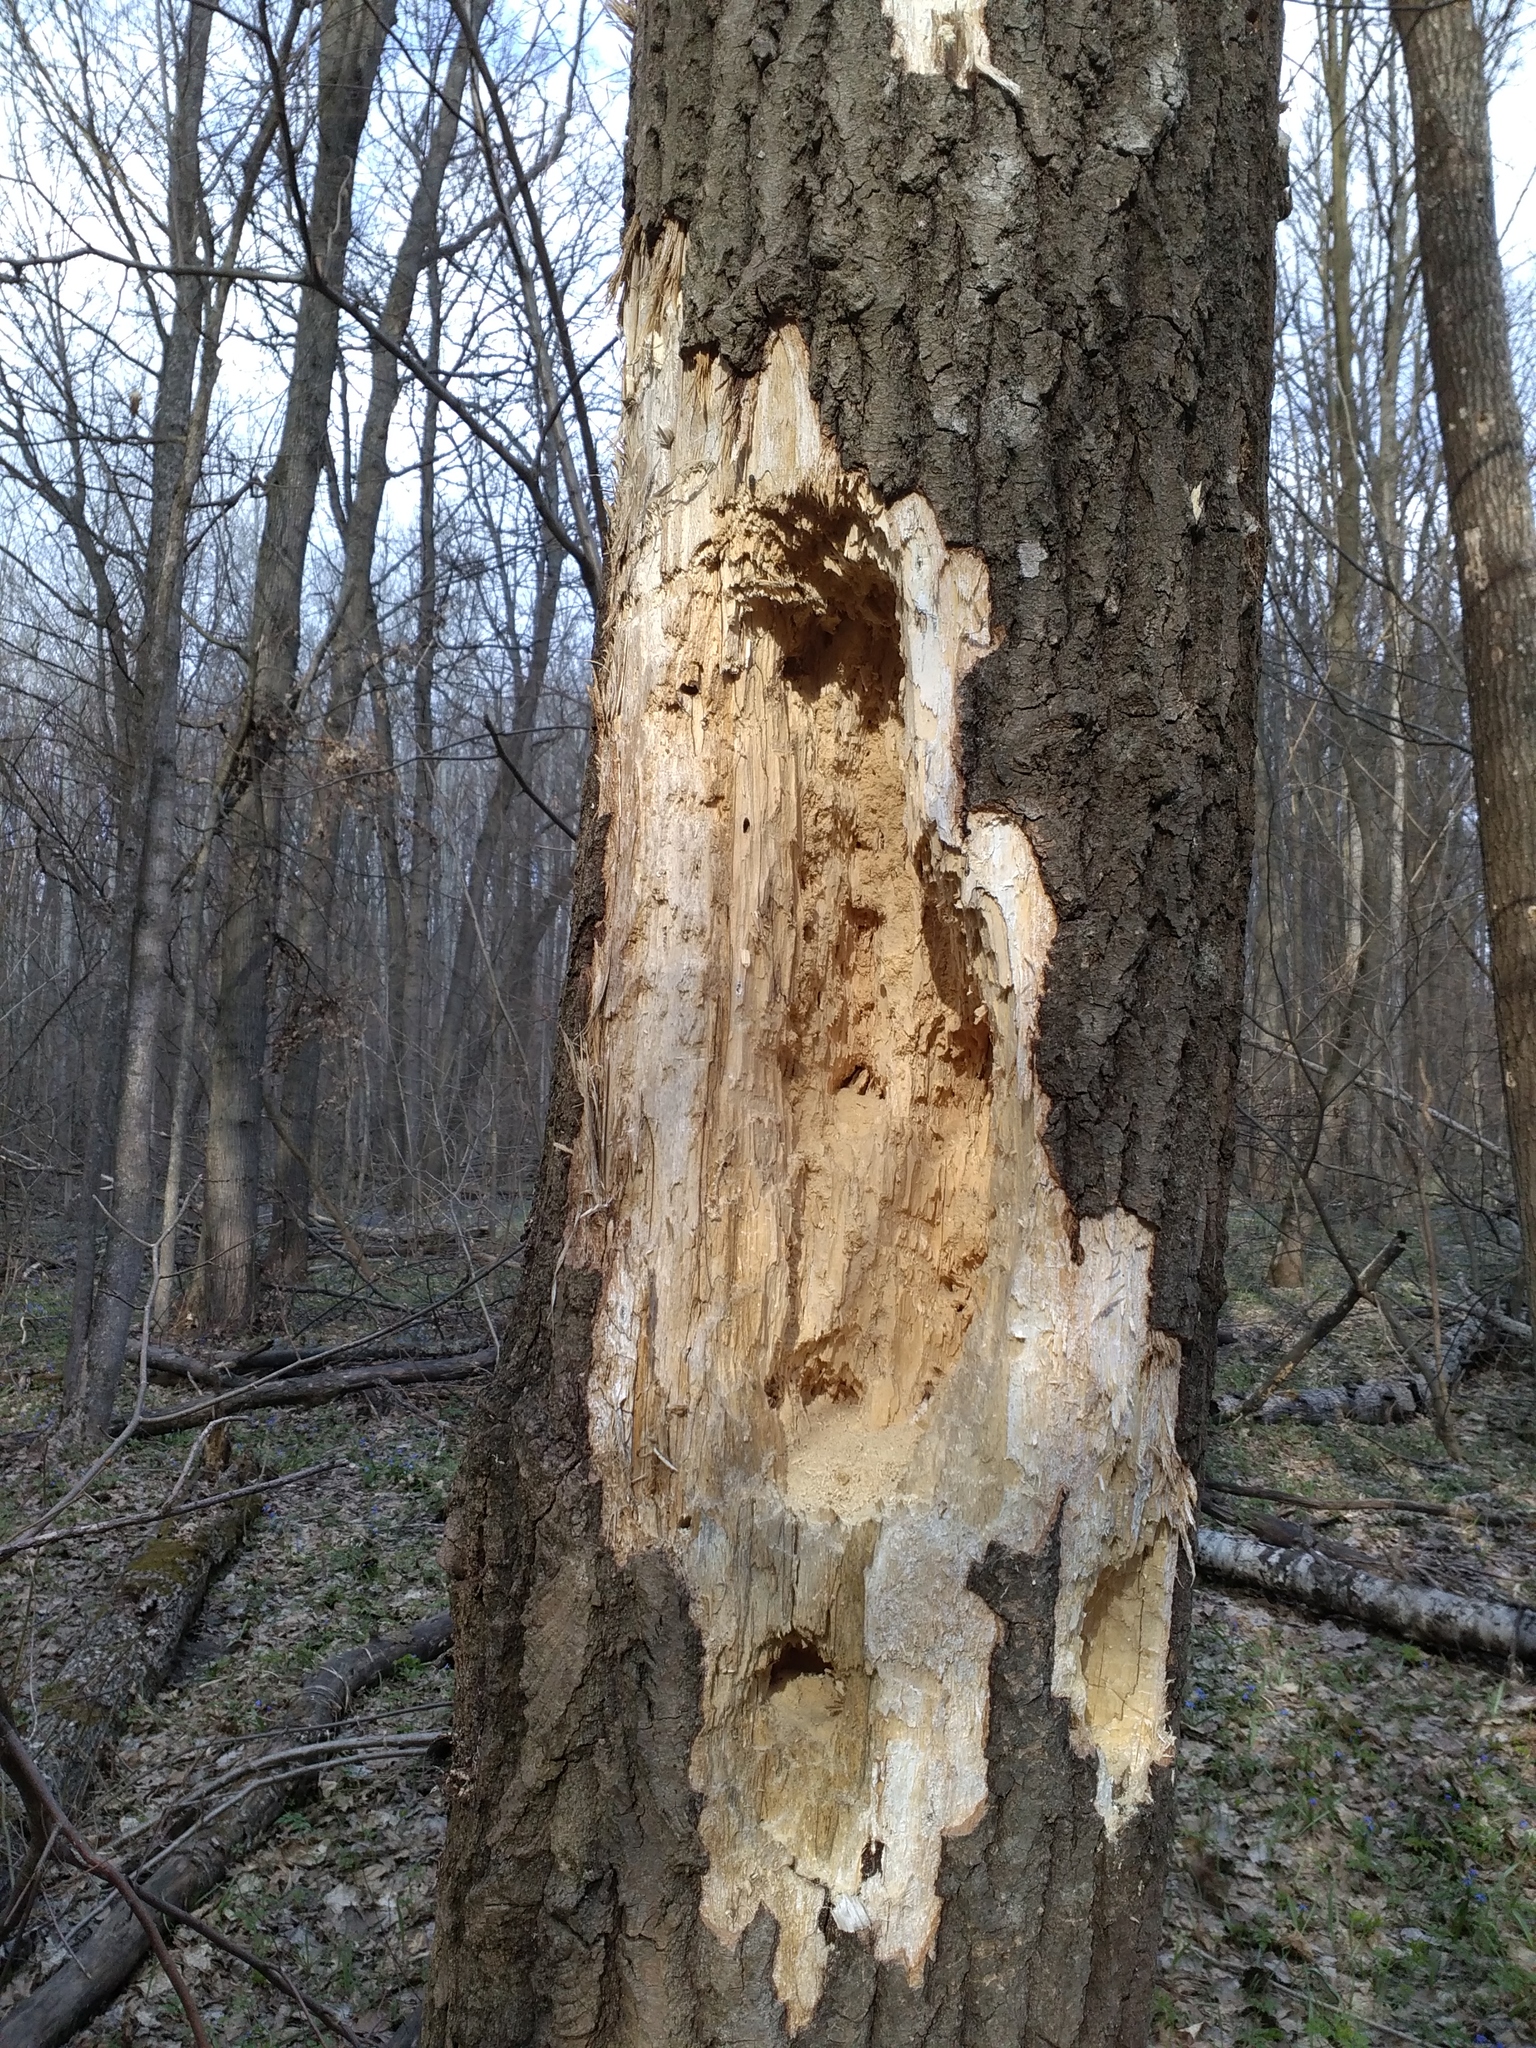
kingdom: Animalia
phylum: Chordata
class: Aves
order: Piciformes
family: Picidae
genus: Dryocopus
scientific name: Dryocopus martius
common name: Black woodpecker
